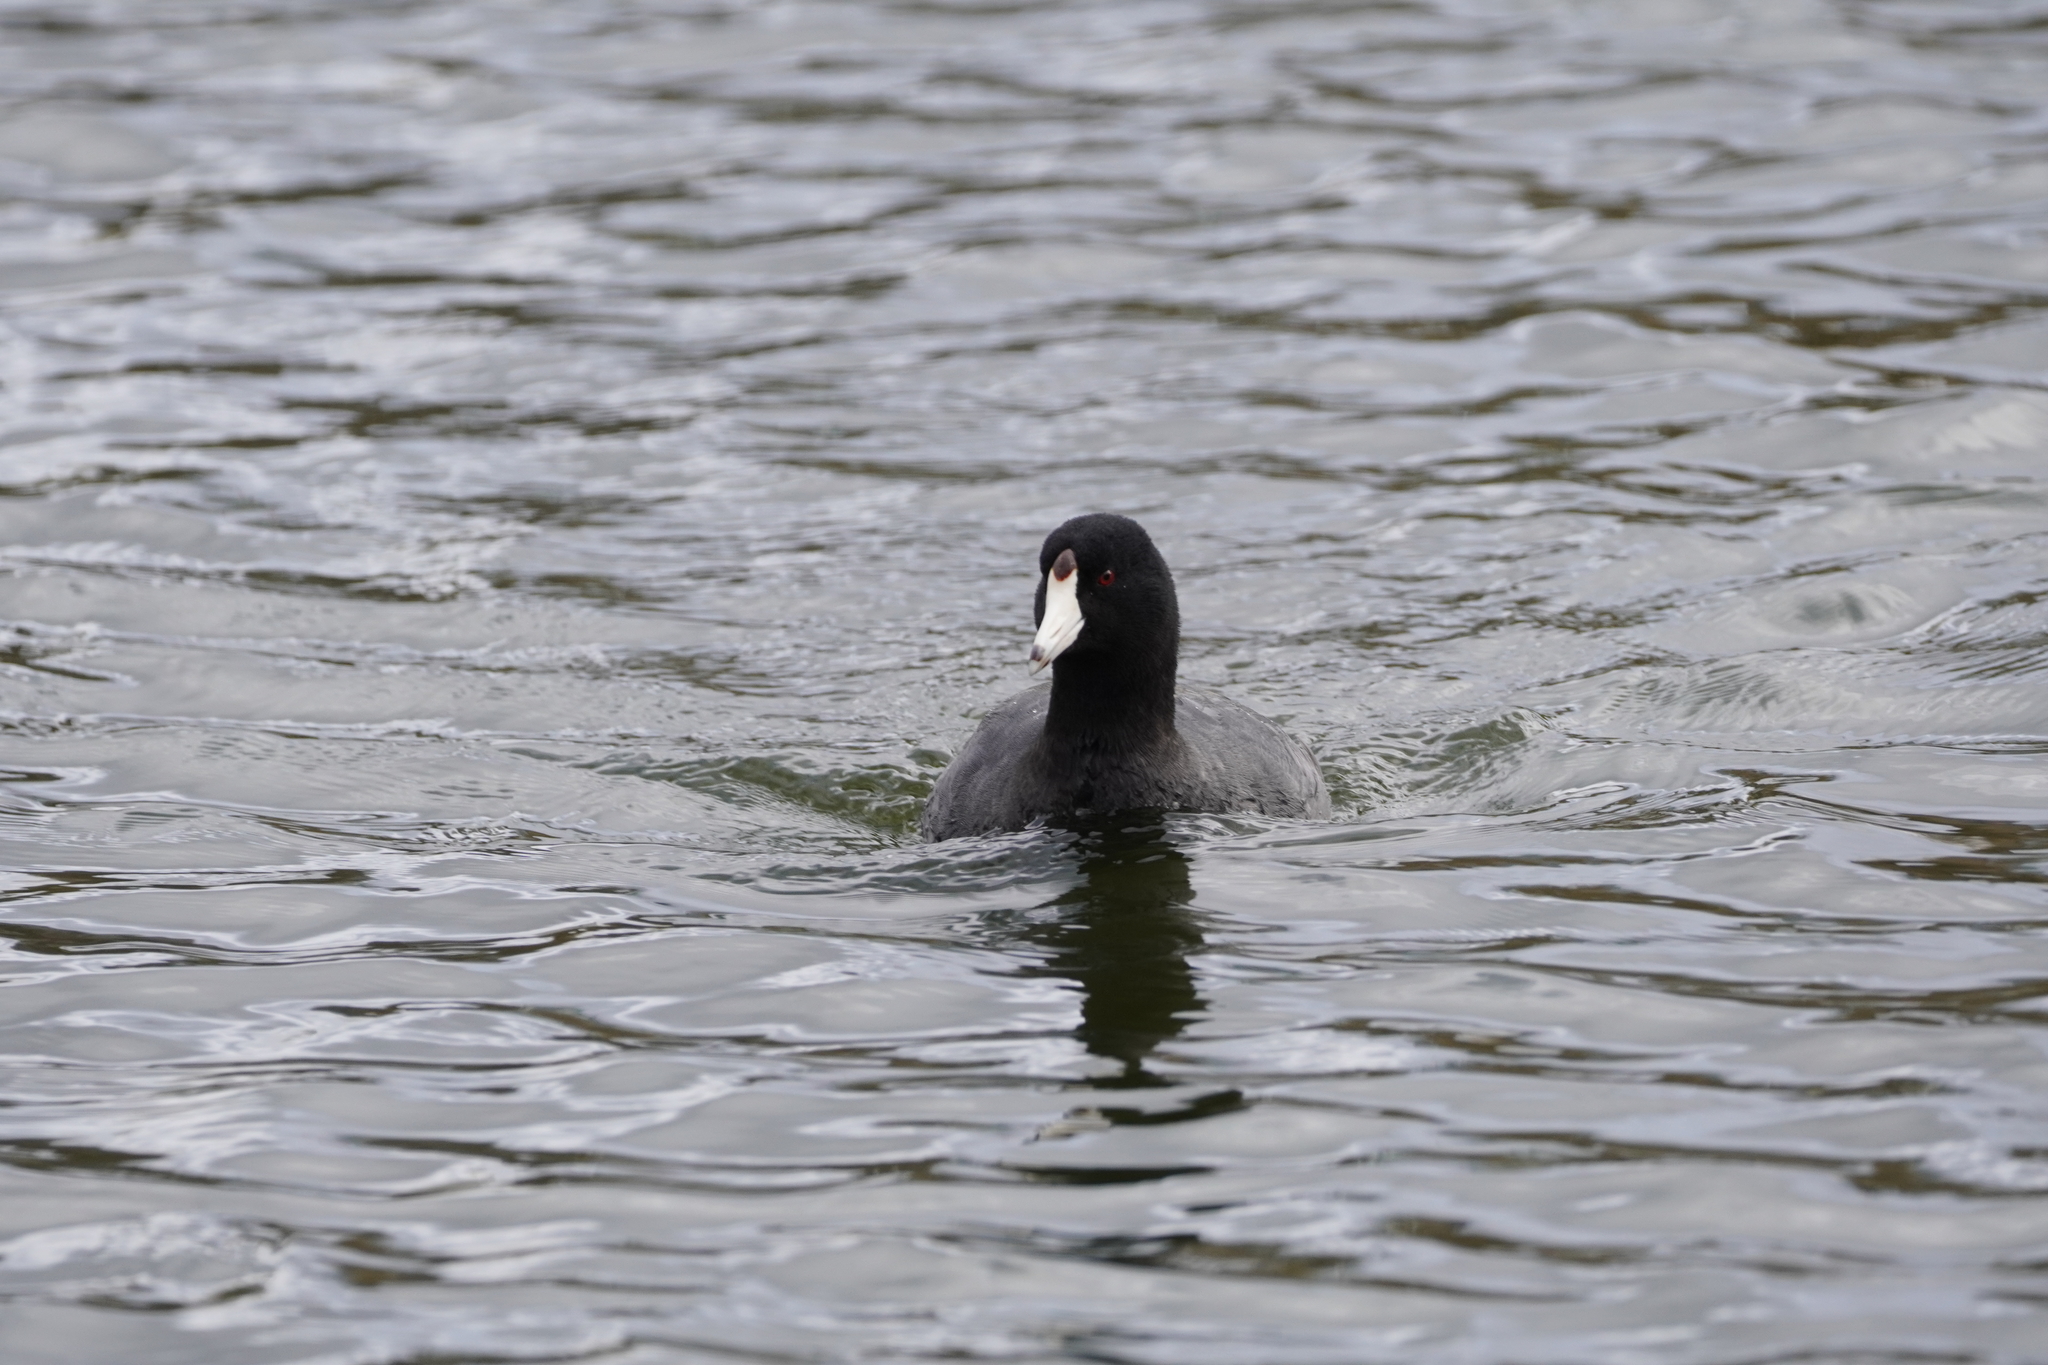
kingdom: Animalia
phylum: Chordata
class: Aves
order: Gruiformes
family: Rallidae
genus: Fulica
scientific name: Fulica americana
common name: American coot
